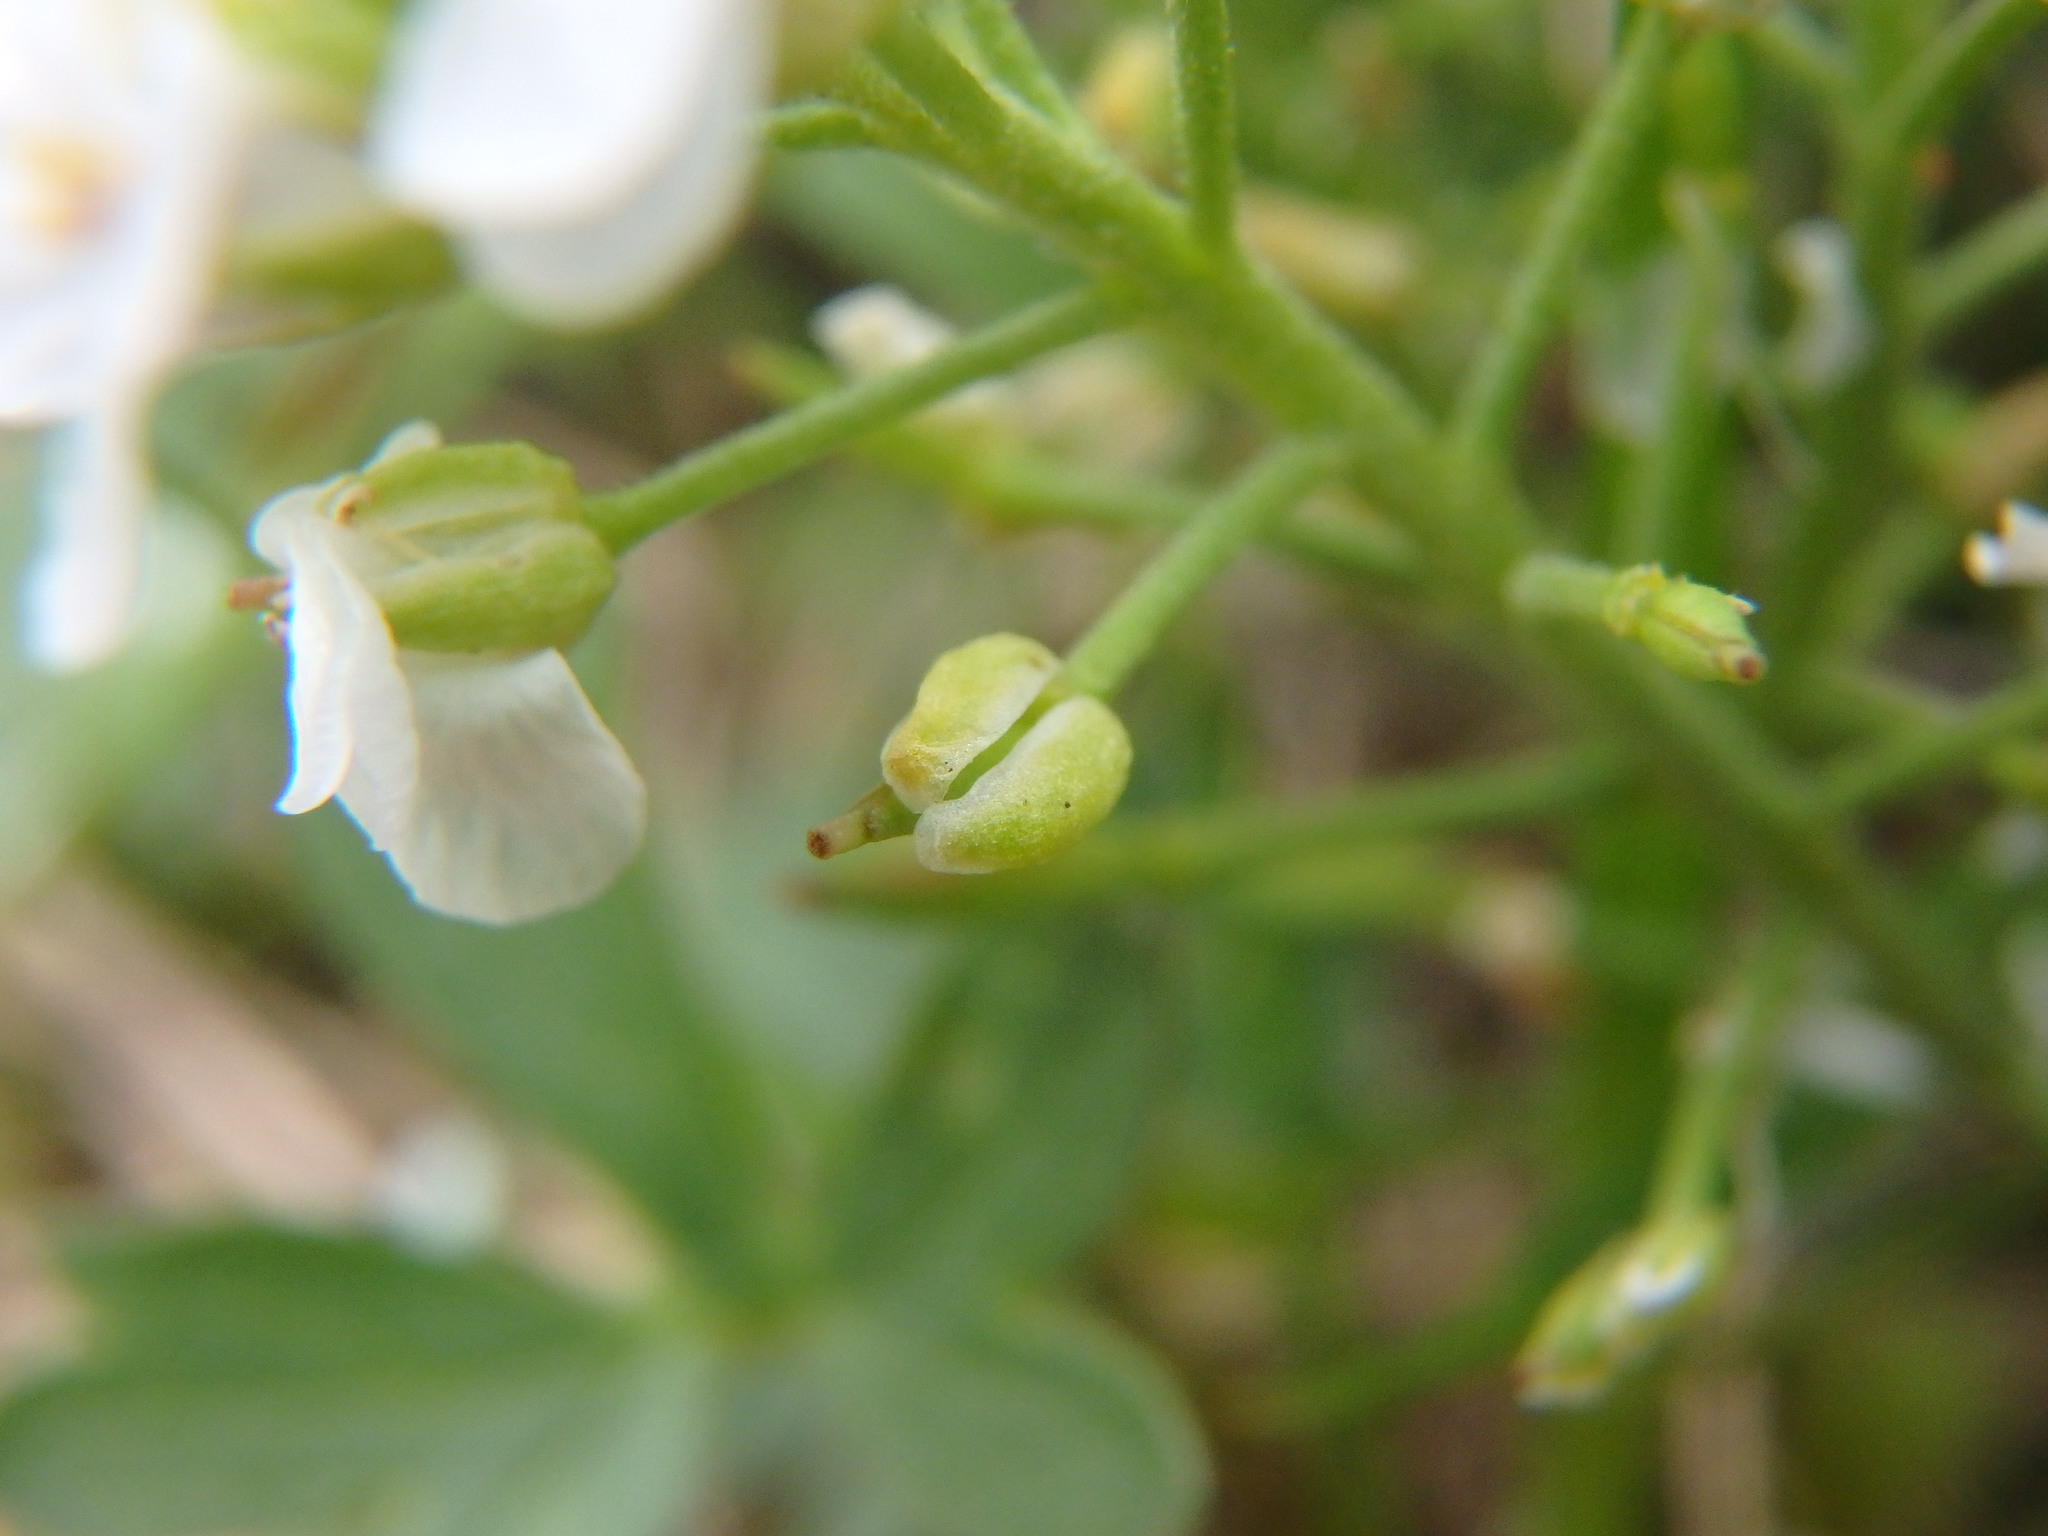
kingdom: Plantae
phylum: Tracheophyta
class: Magnoliopsida
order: Brassicales
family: Brassicaceae
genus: Hornungia
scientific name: Hornungia alpina
